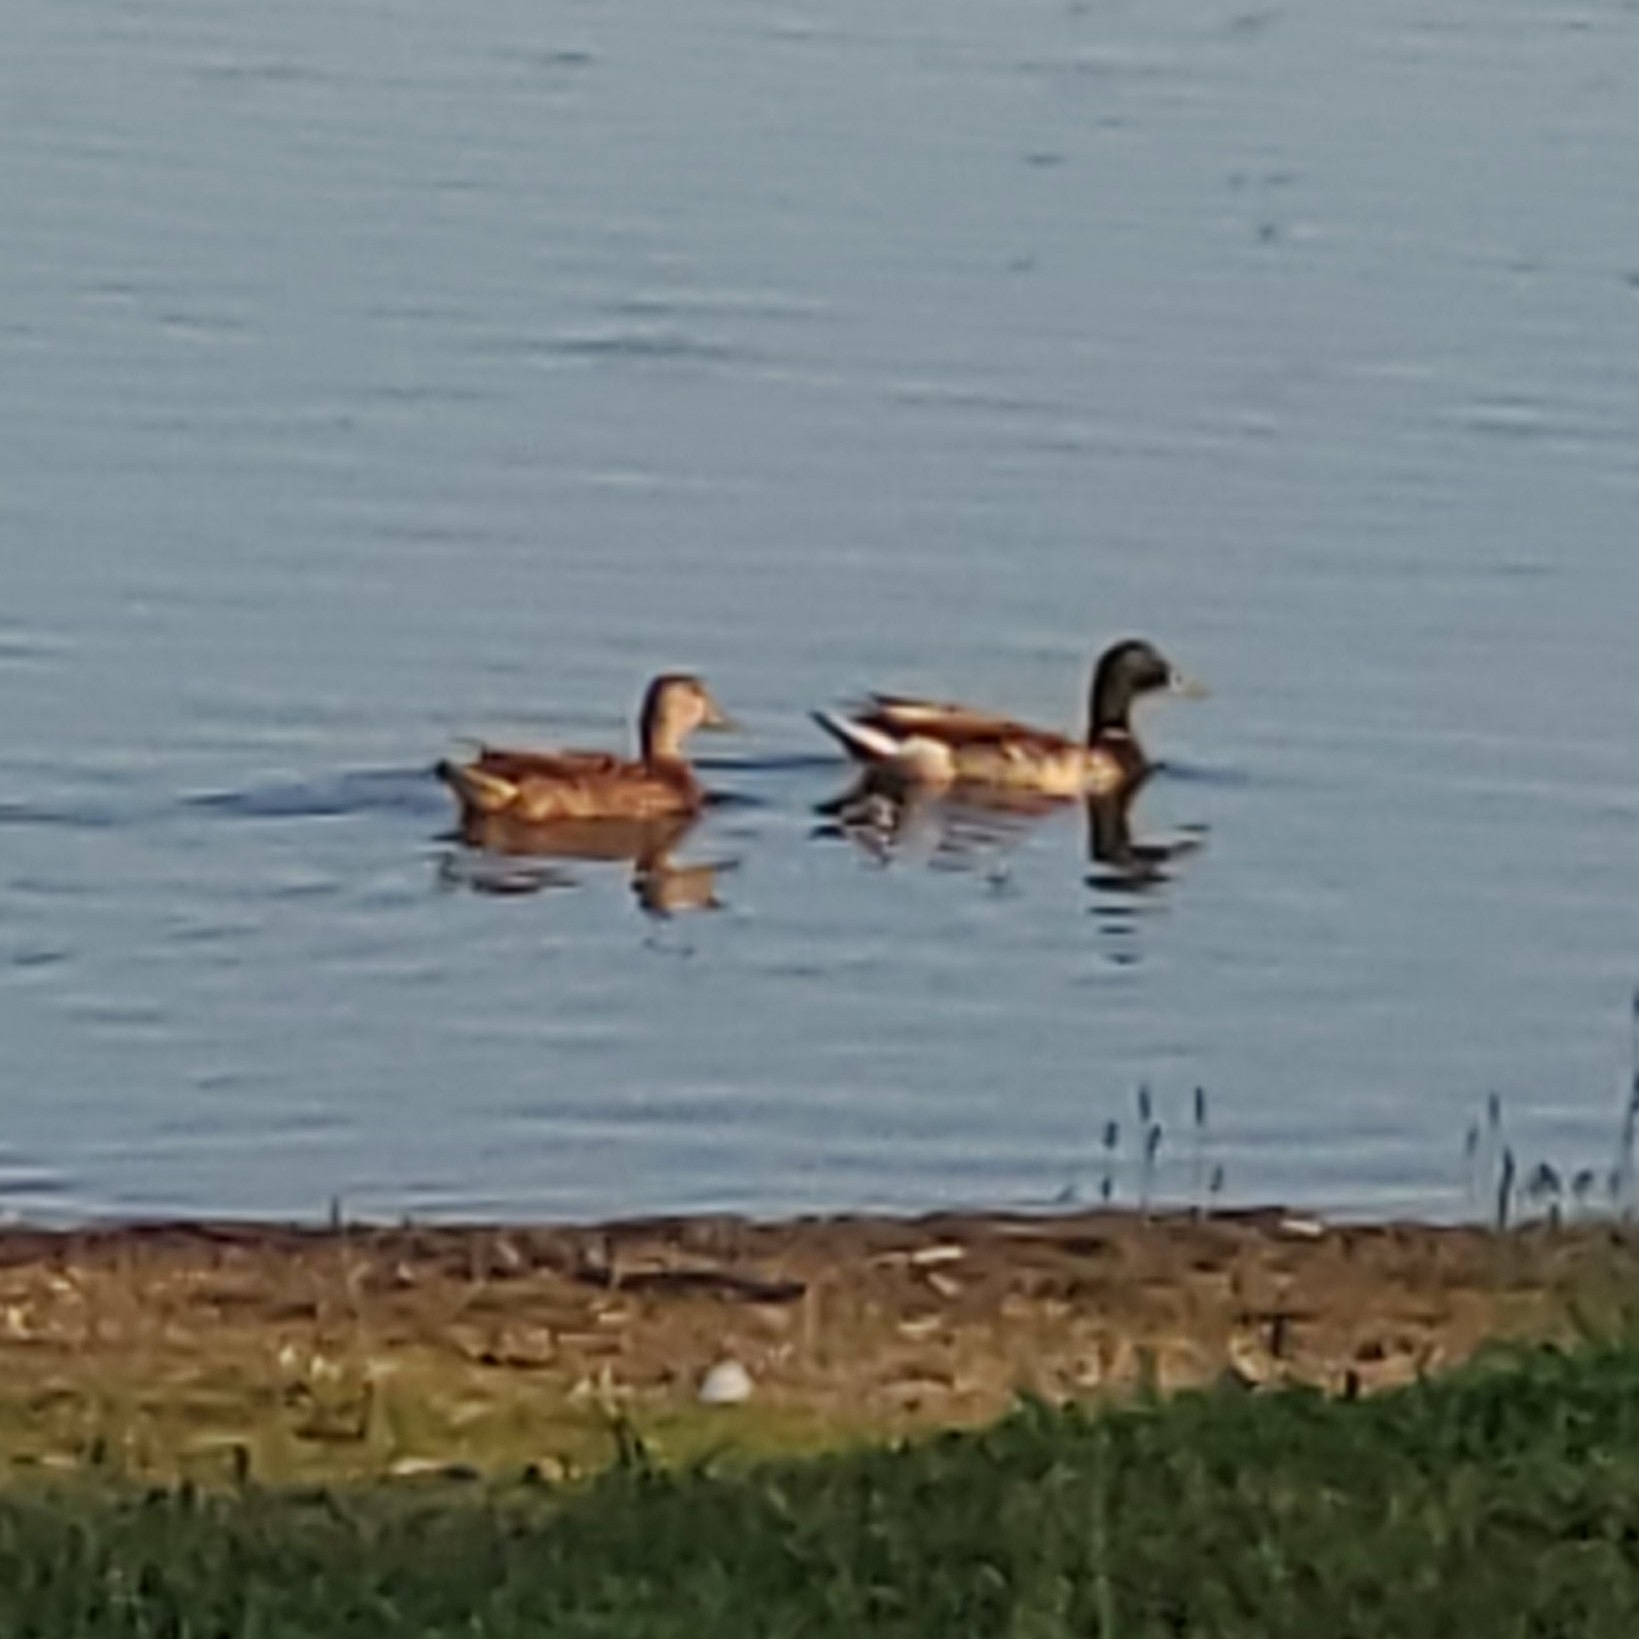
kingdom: Animalia
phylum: Chordata
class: Aves
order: Anseriformes
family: Anatidae
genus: Anas
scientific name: Anas platyrhynchos
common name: Mallard
